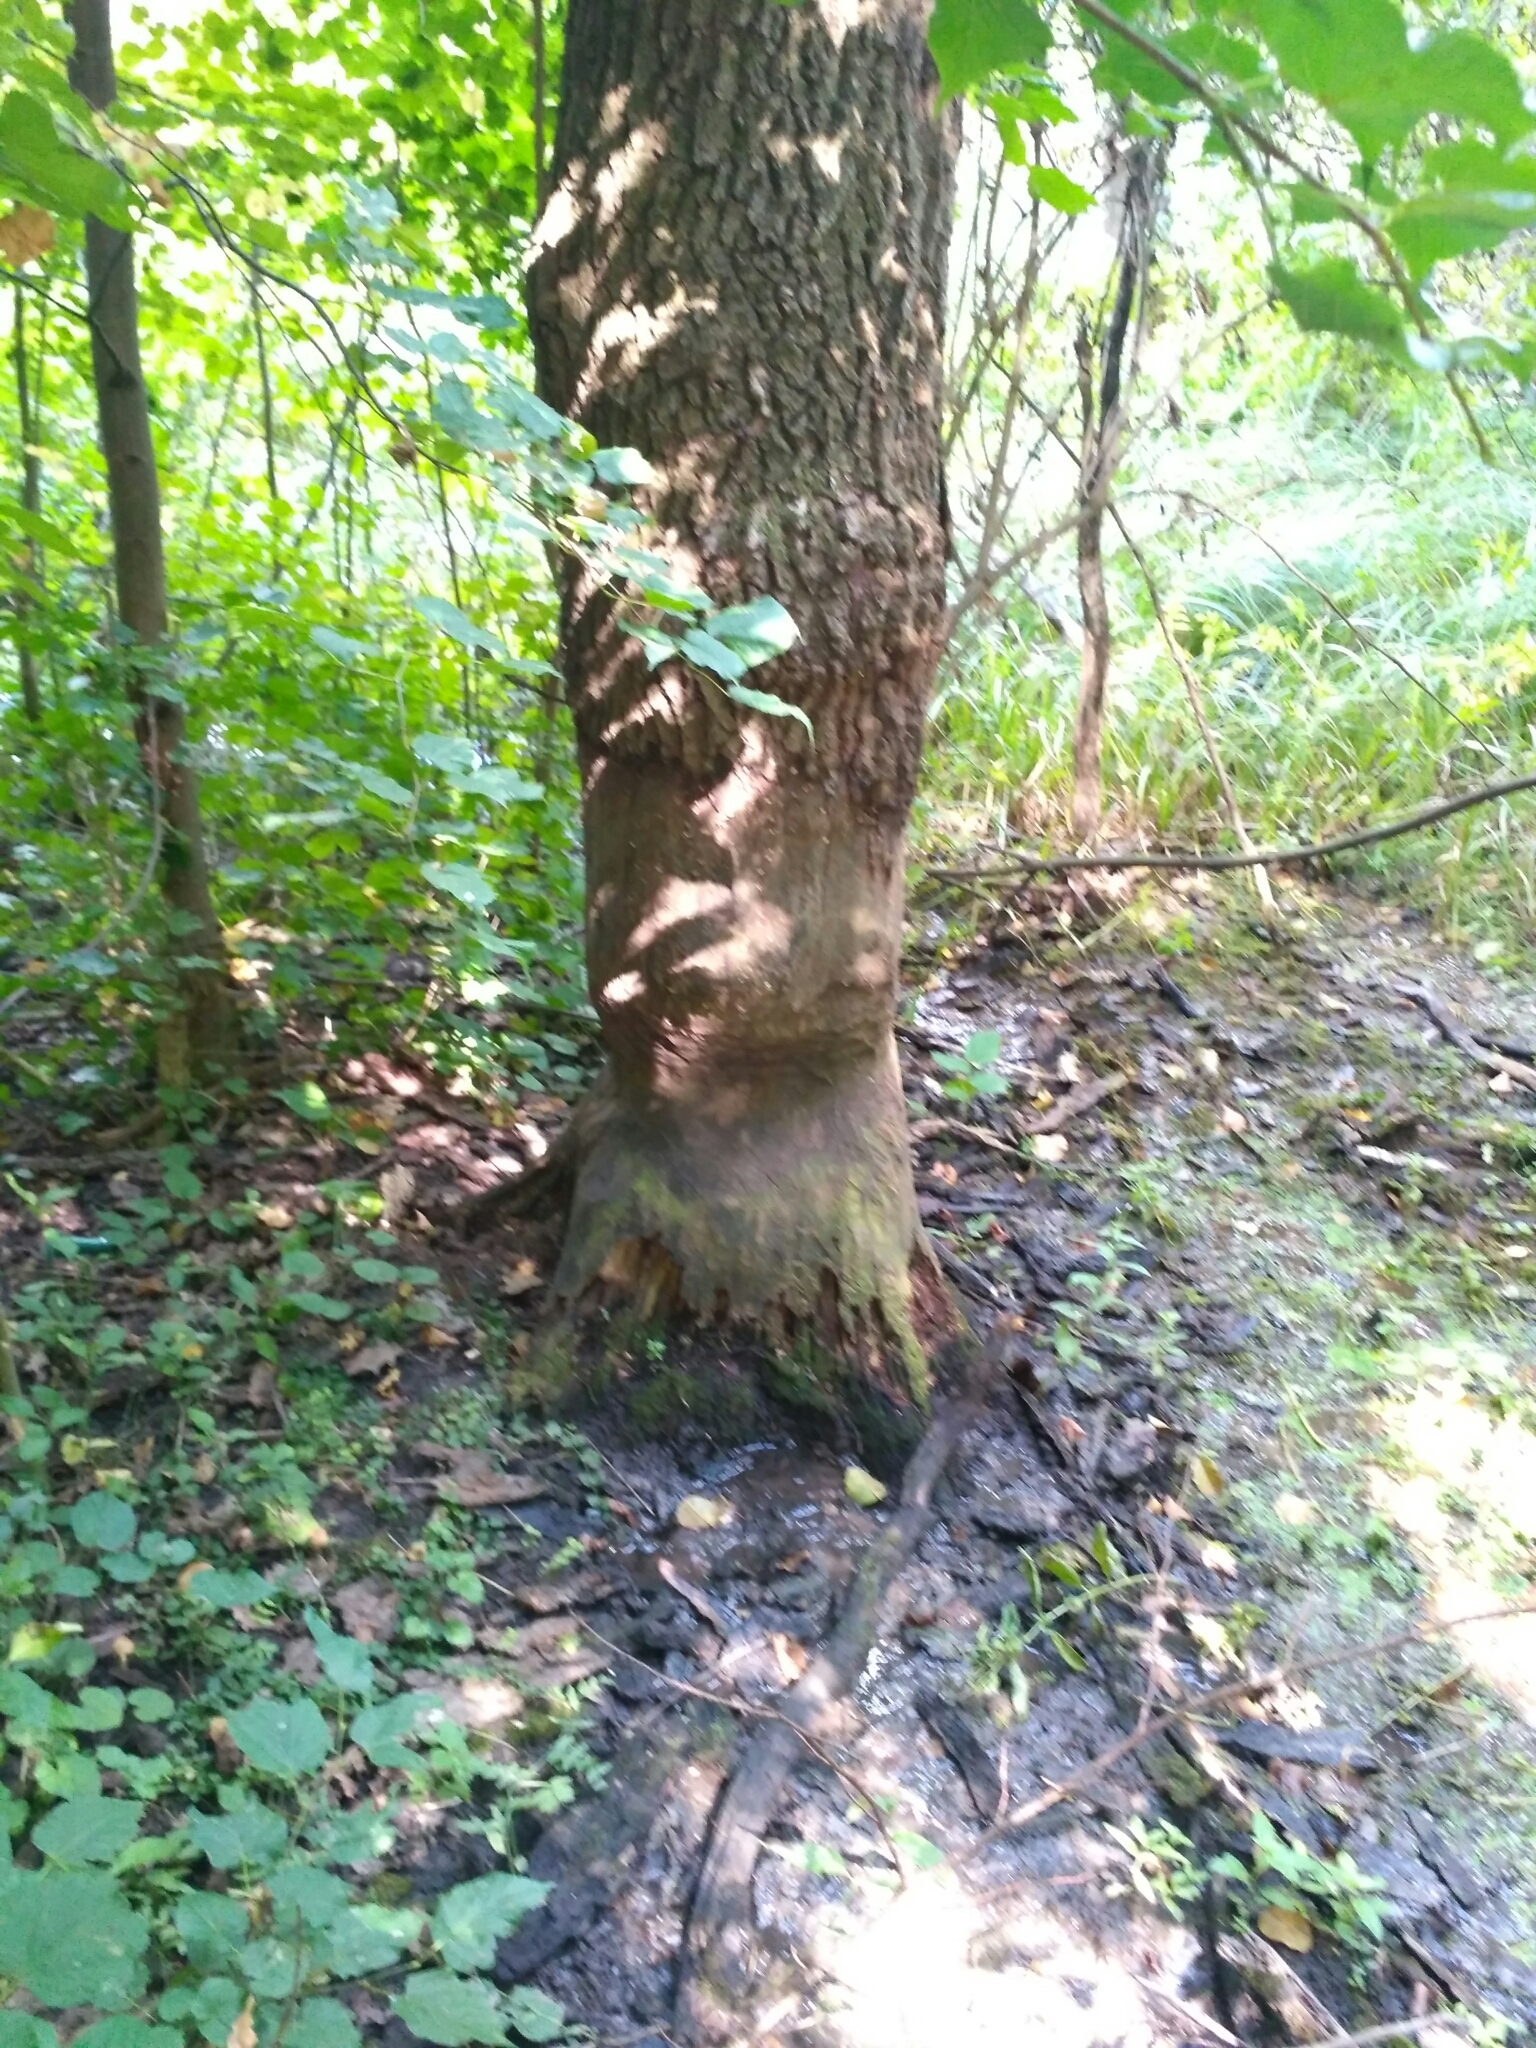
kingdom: Animalia
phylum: Chordata
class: Mammalia
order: Rodentia
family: Castoridae
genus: Castor
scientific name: Castor fiber
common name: Eurasian beaver
